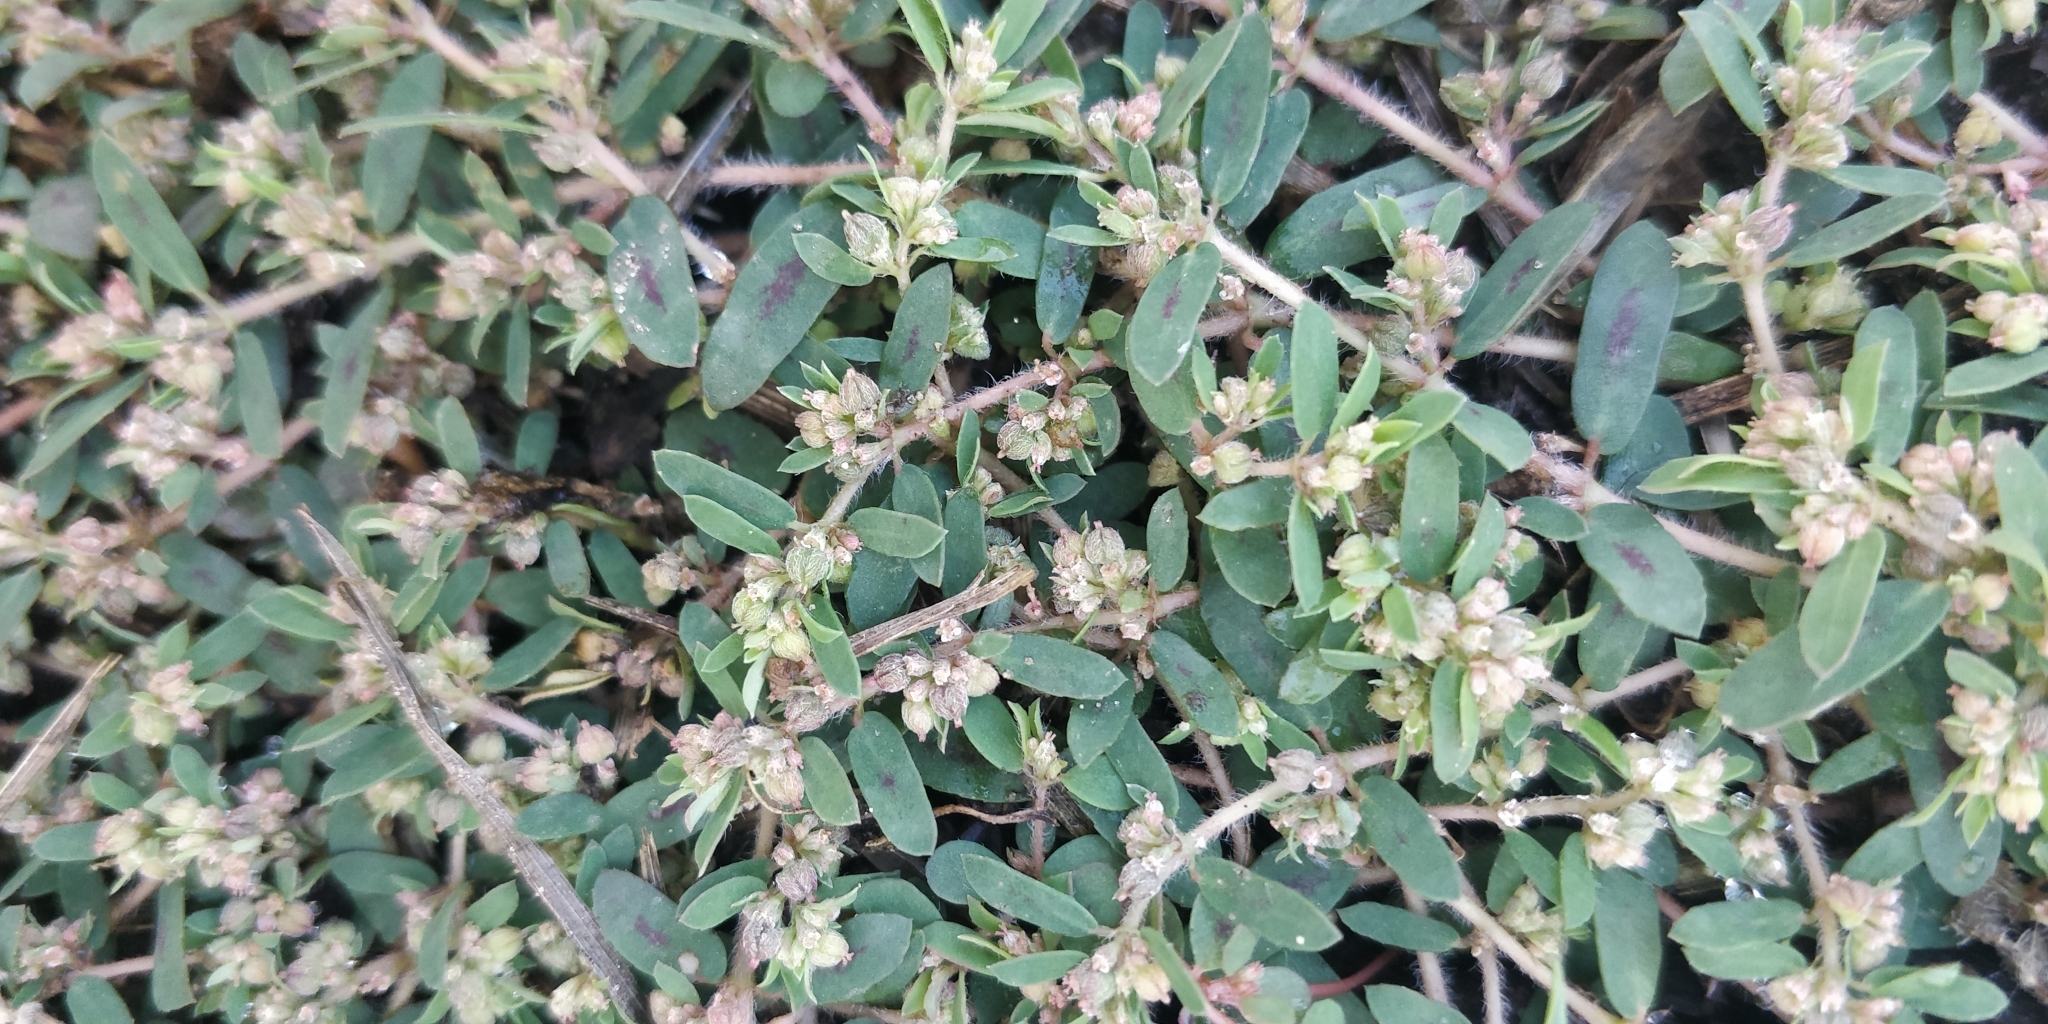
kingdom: Plantae
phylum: Tracheophyta
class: Magnoliopsida
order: Malpighiales
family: Euphorbiaceae
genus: Euphorbia
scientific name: Euphorbia maculata
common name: Spotted spurge
